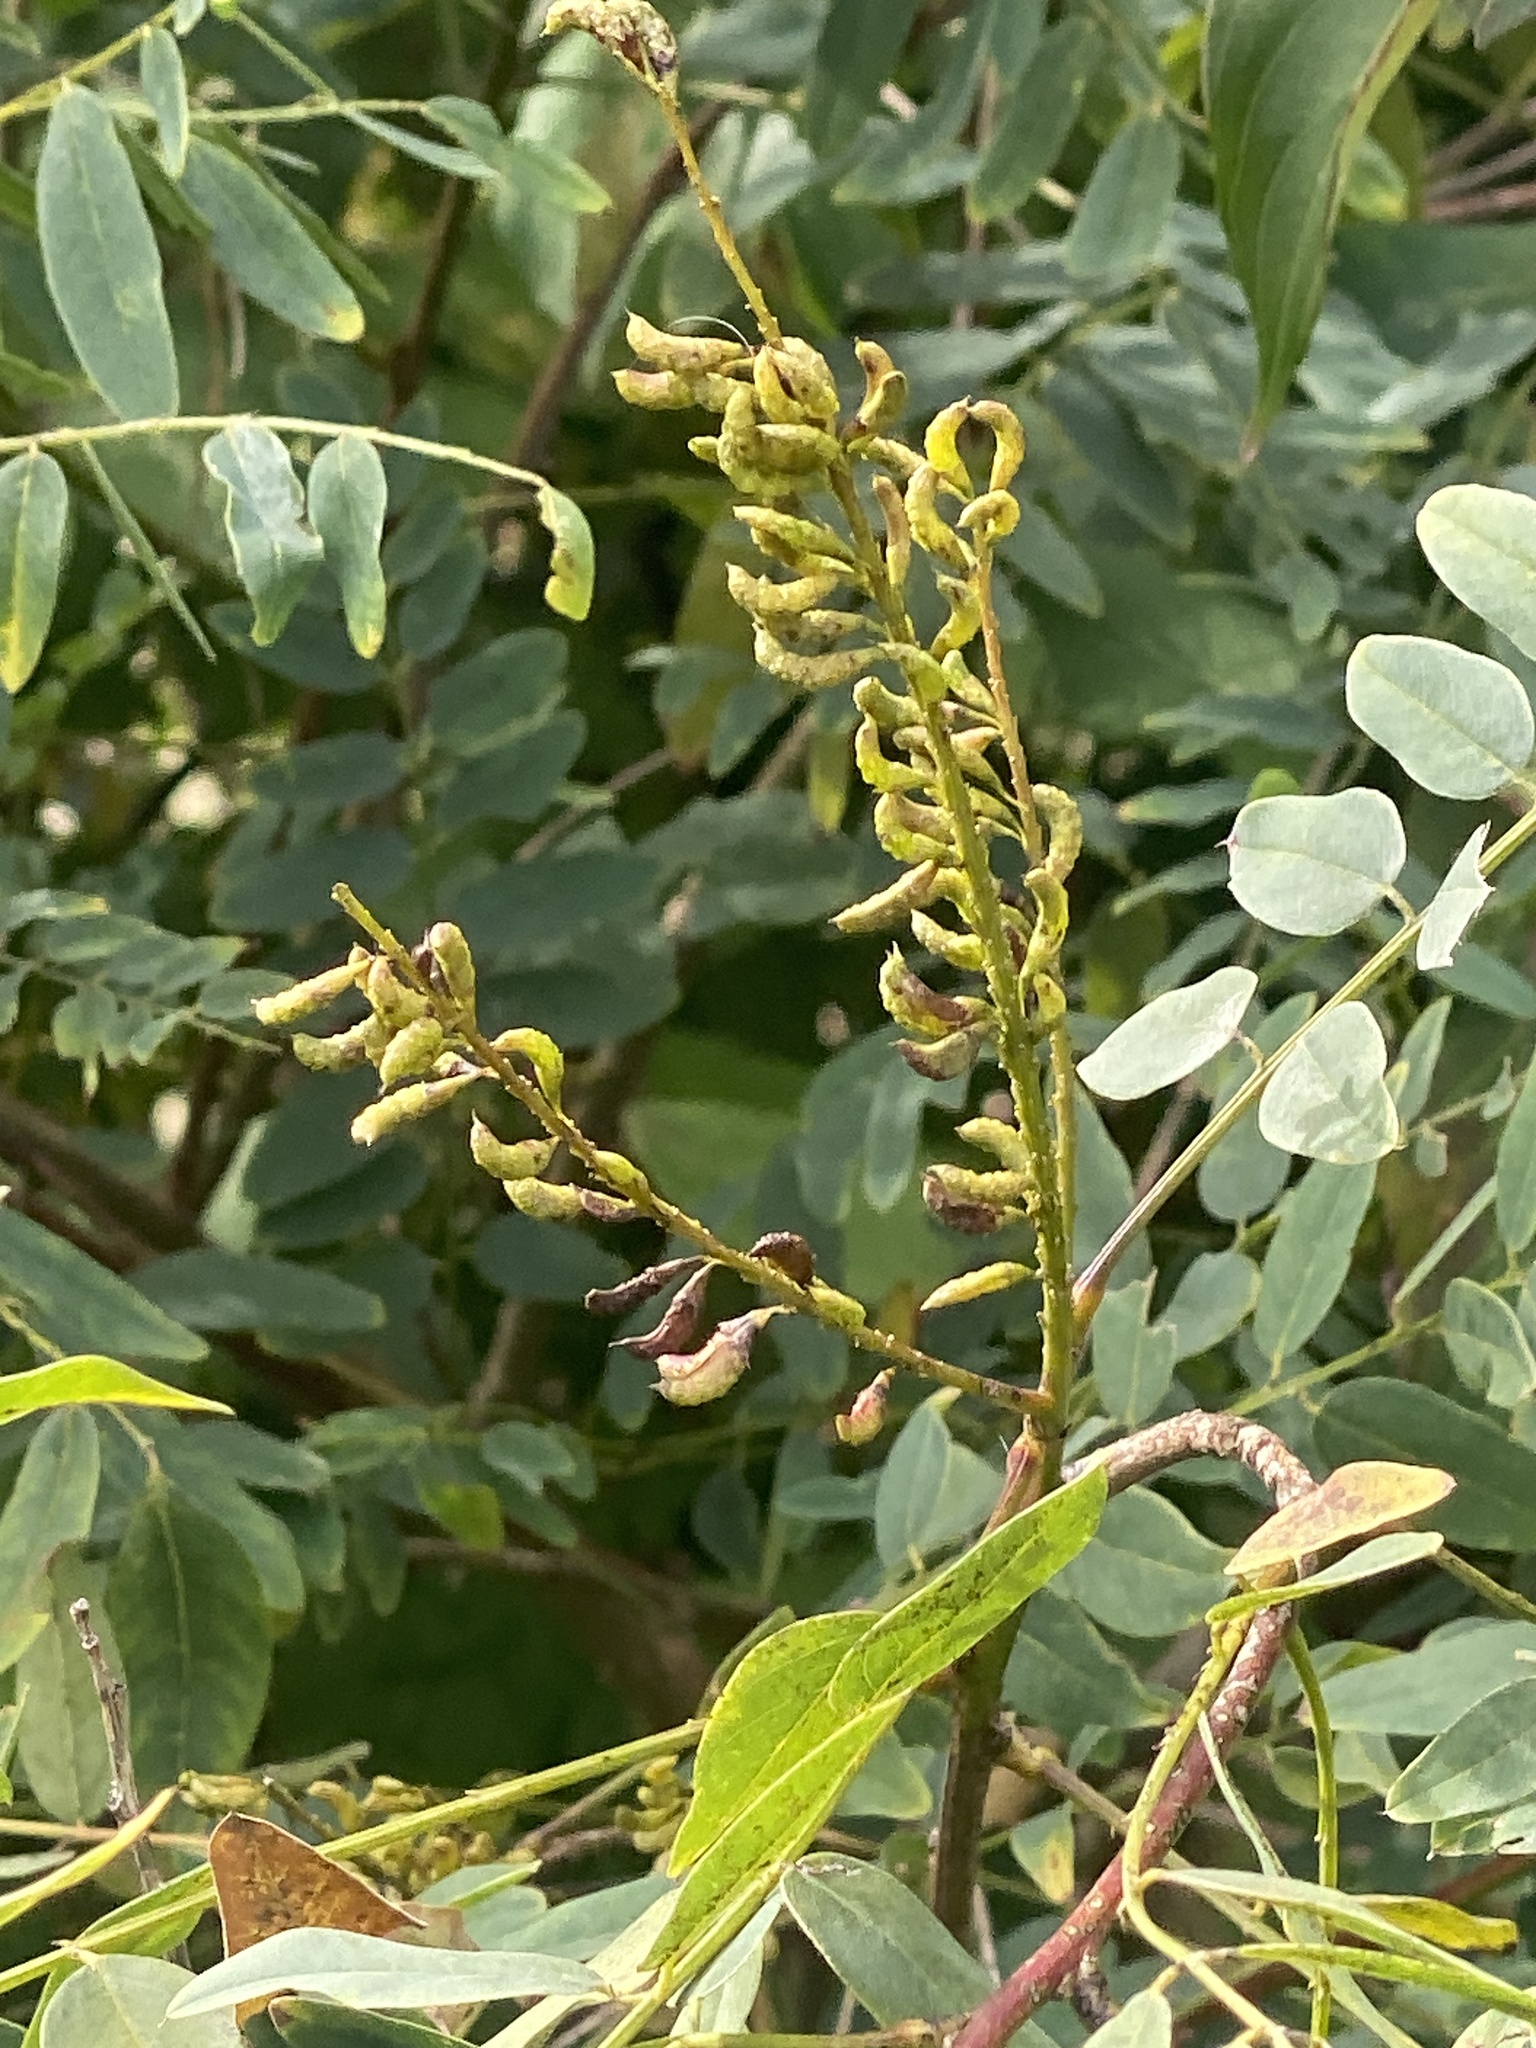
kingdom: Plantae
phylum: Tracheophyta
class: Magnoliopsida
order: Fabales
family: Fabaceae
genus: Amorpha
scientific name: Amorpha fruticosa
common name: False indigo
